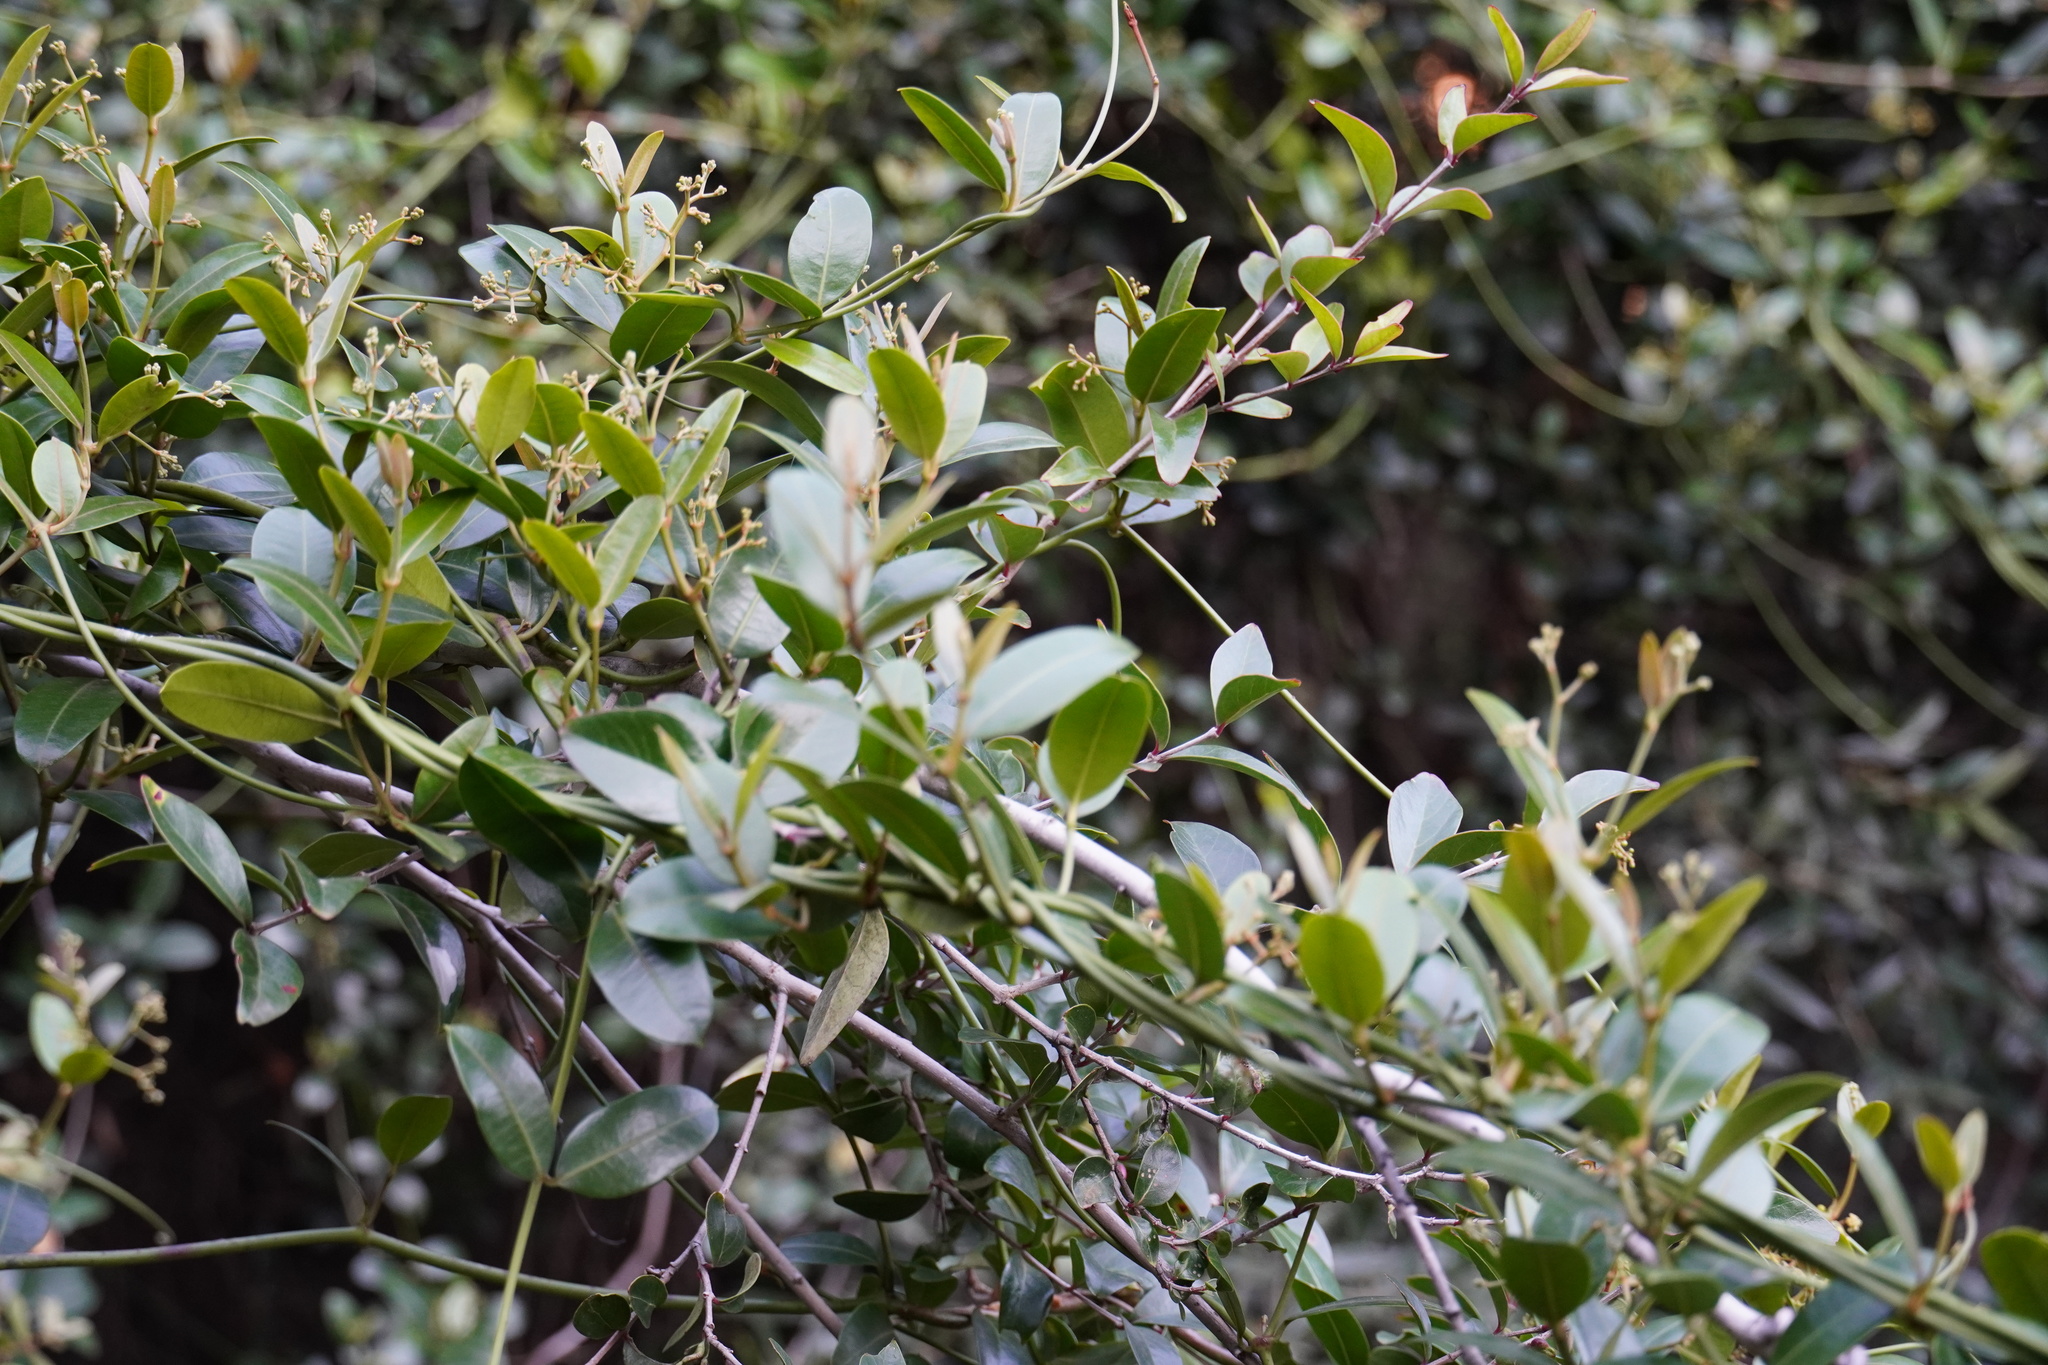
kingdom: Plantae
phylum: Tracheophyta
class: Magnoliopsida
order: Gentianales
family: Apocynaceae
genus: Secamone
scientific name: Secamone alpini
